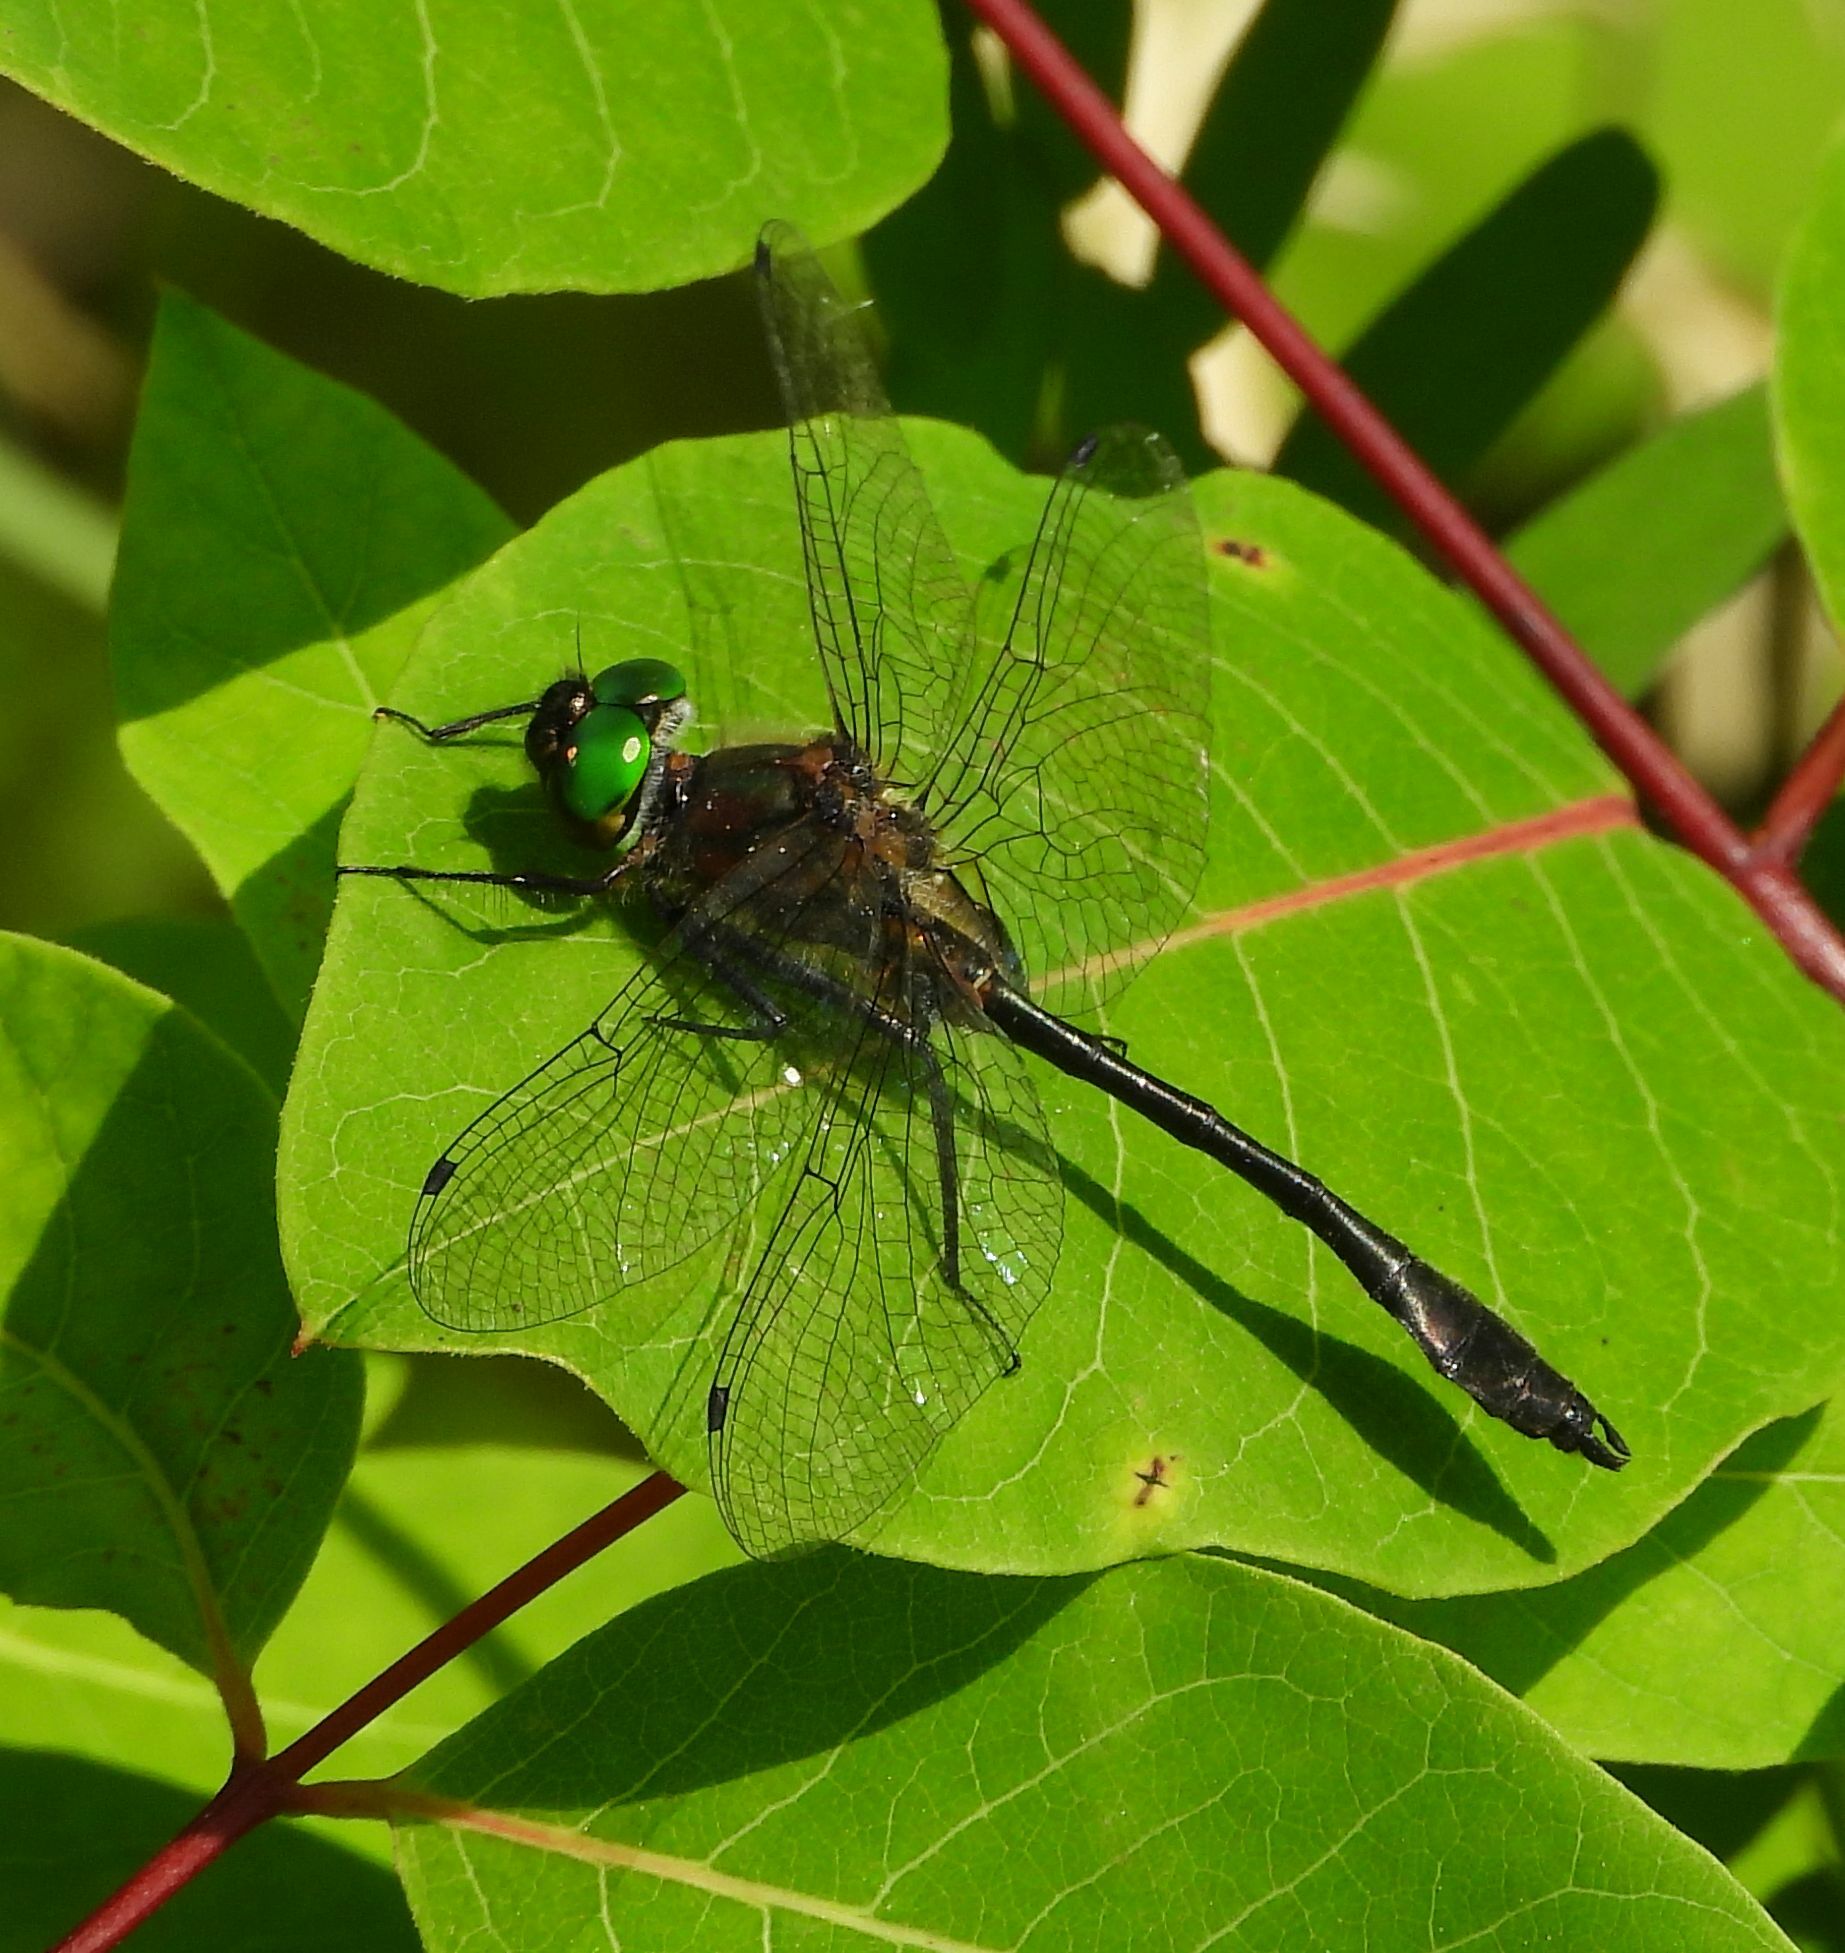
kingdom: Animalia
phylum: Arthropoda
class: Insecta
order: Odonata
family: Corduliidae
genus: Dorocordulia
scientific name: Dorocordulia libera
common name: Racket-tailed emerald
